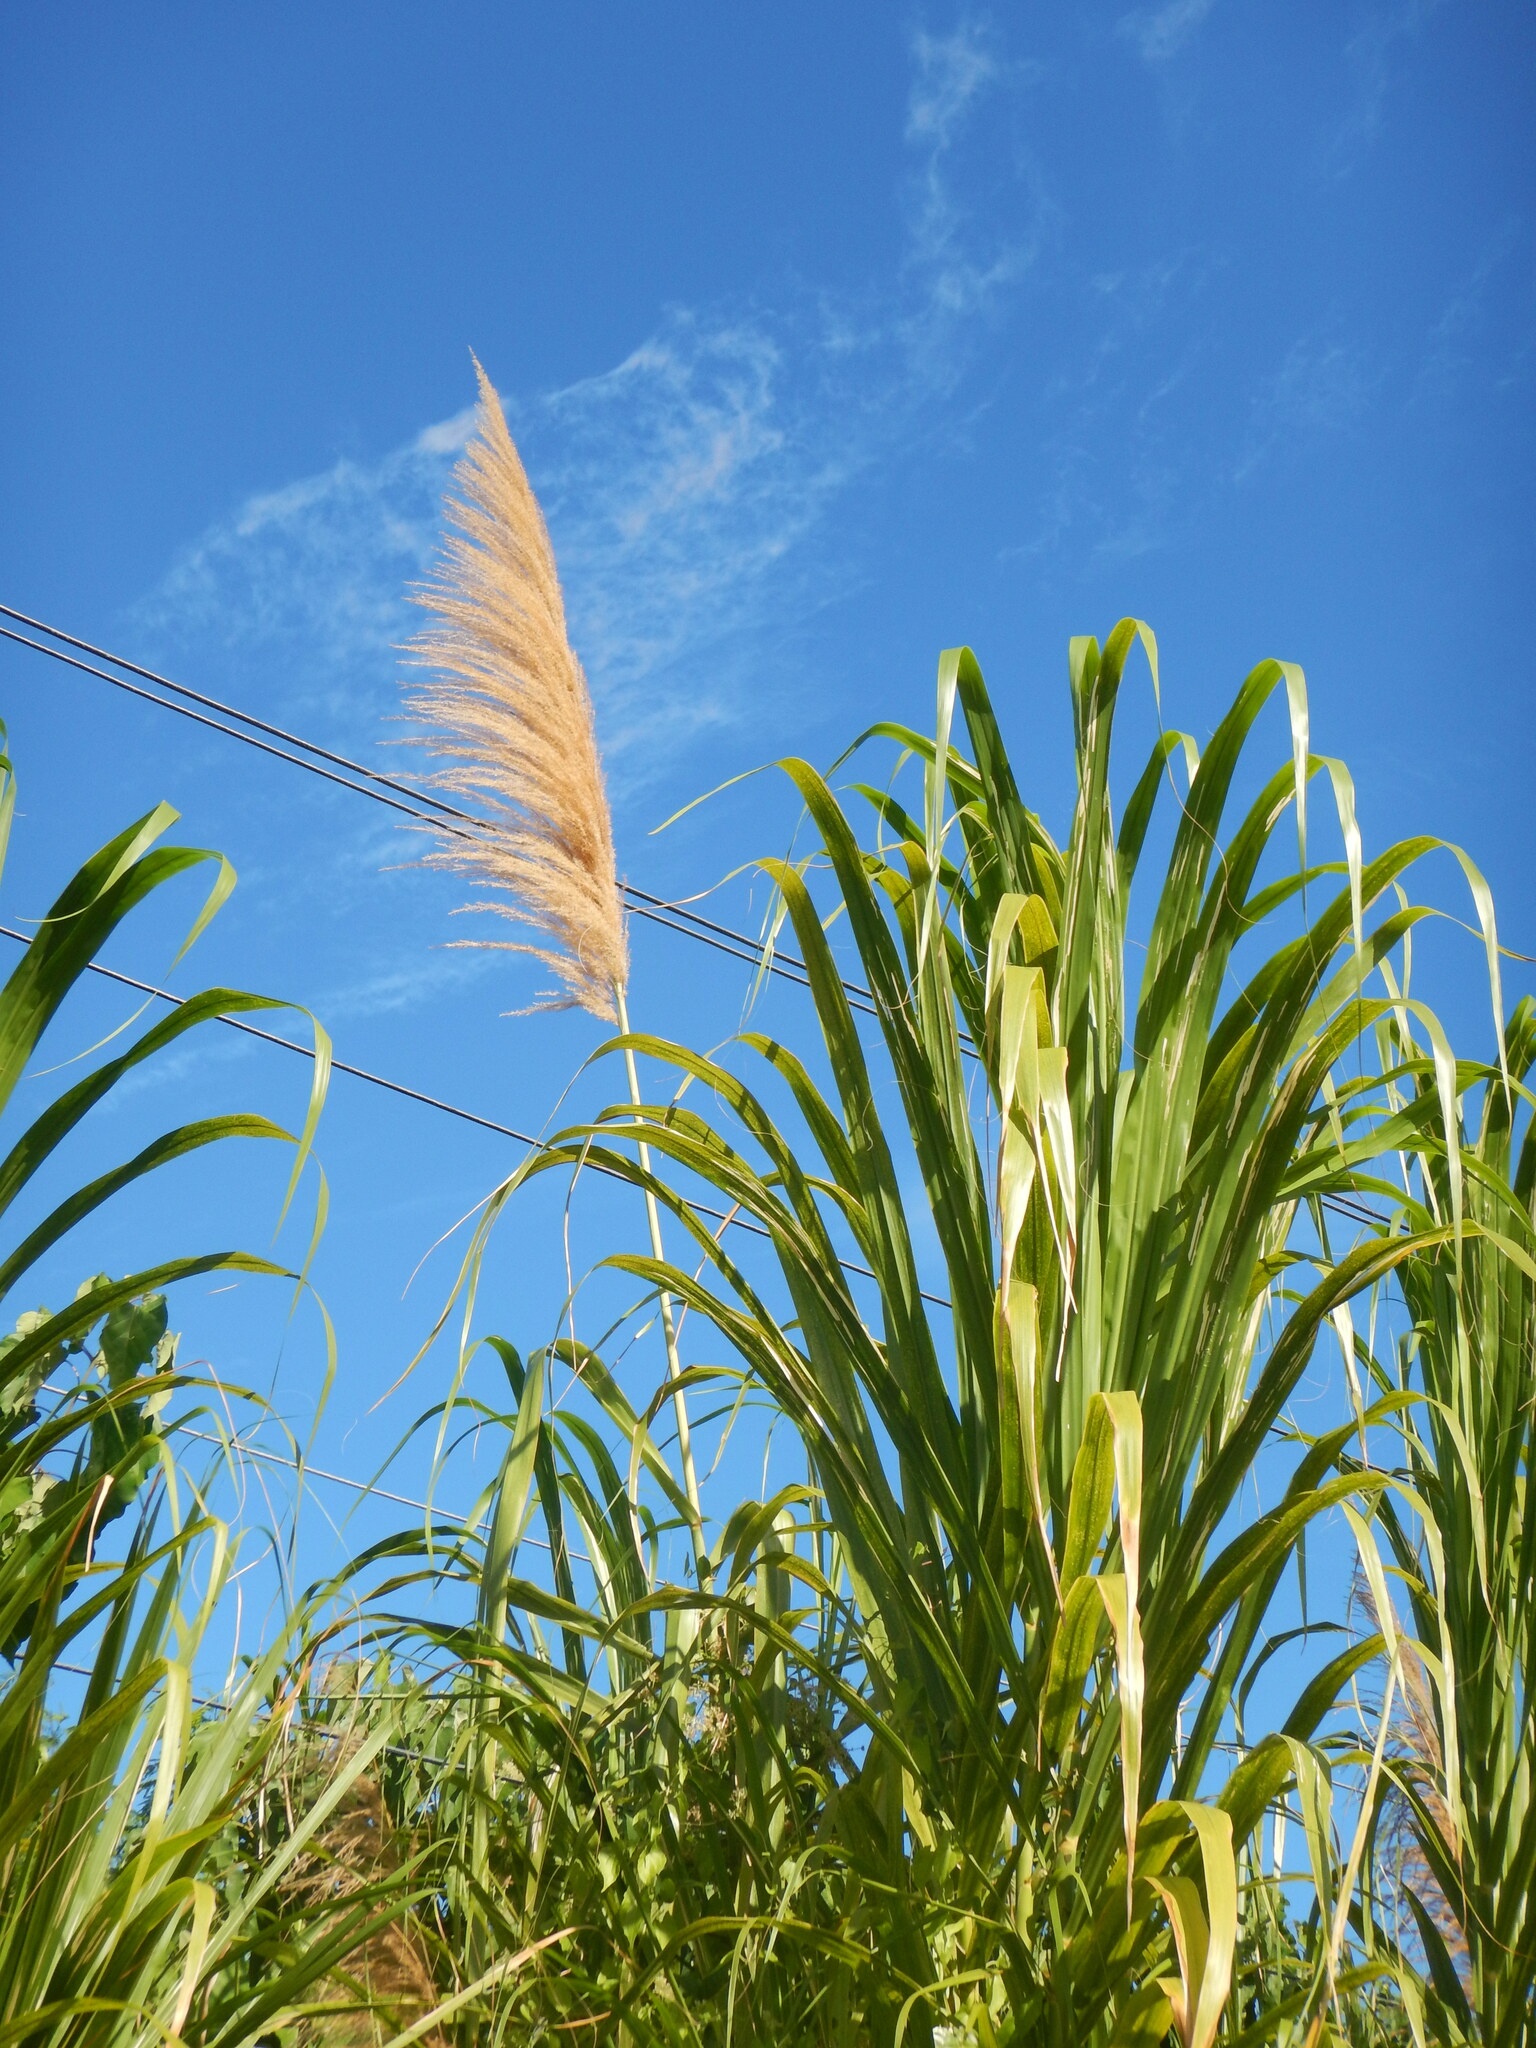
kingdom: Plantae
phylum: Tracheophyta
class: Liliopsida
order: Poales
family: Poaceae
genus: Gynerium
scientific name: Gynerium sagittatum
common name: Wild cane
